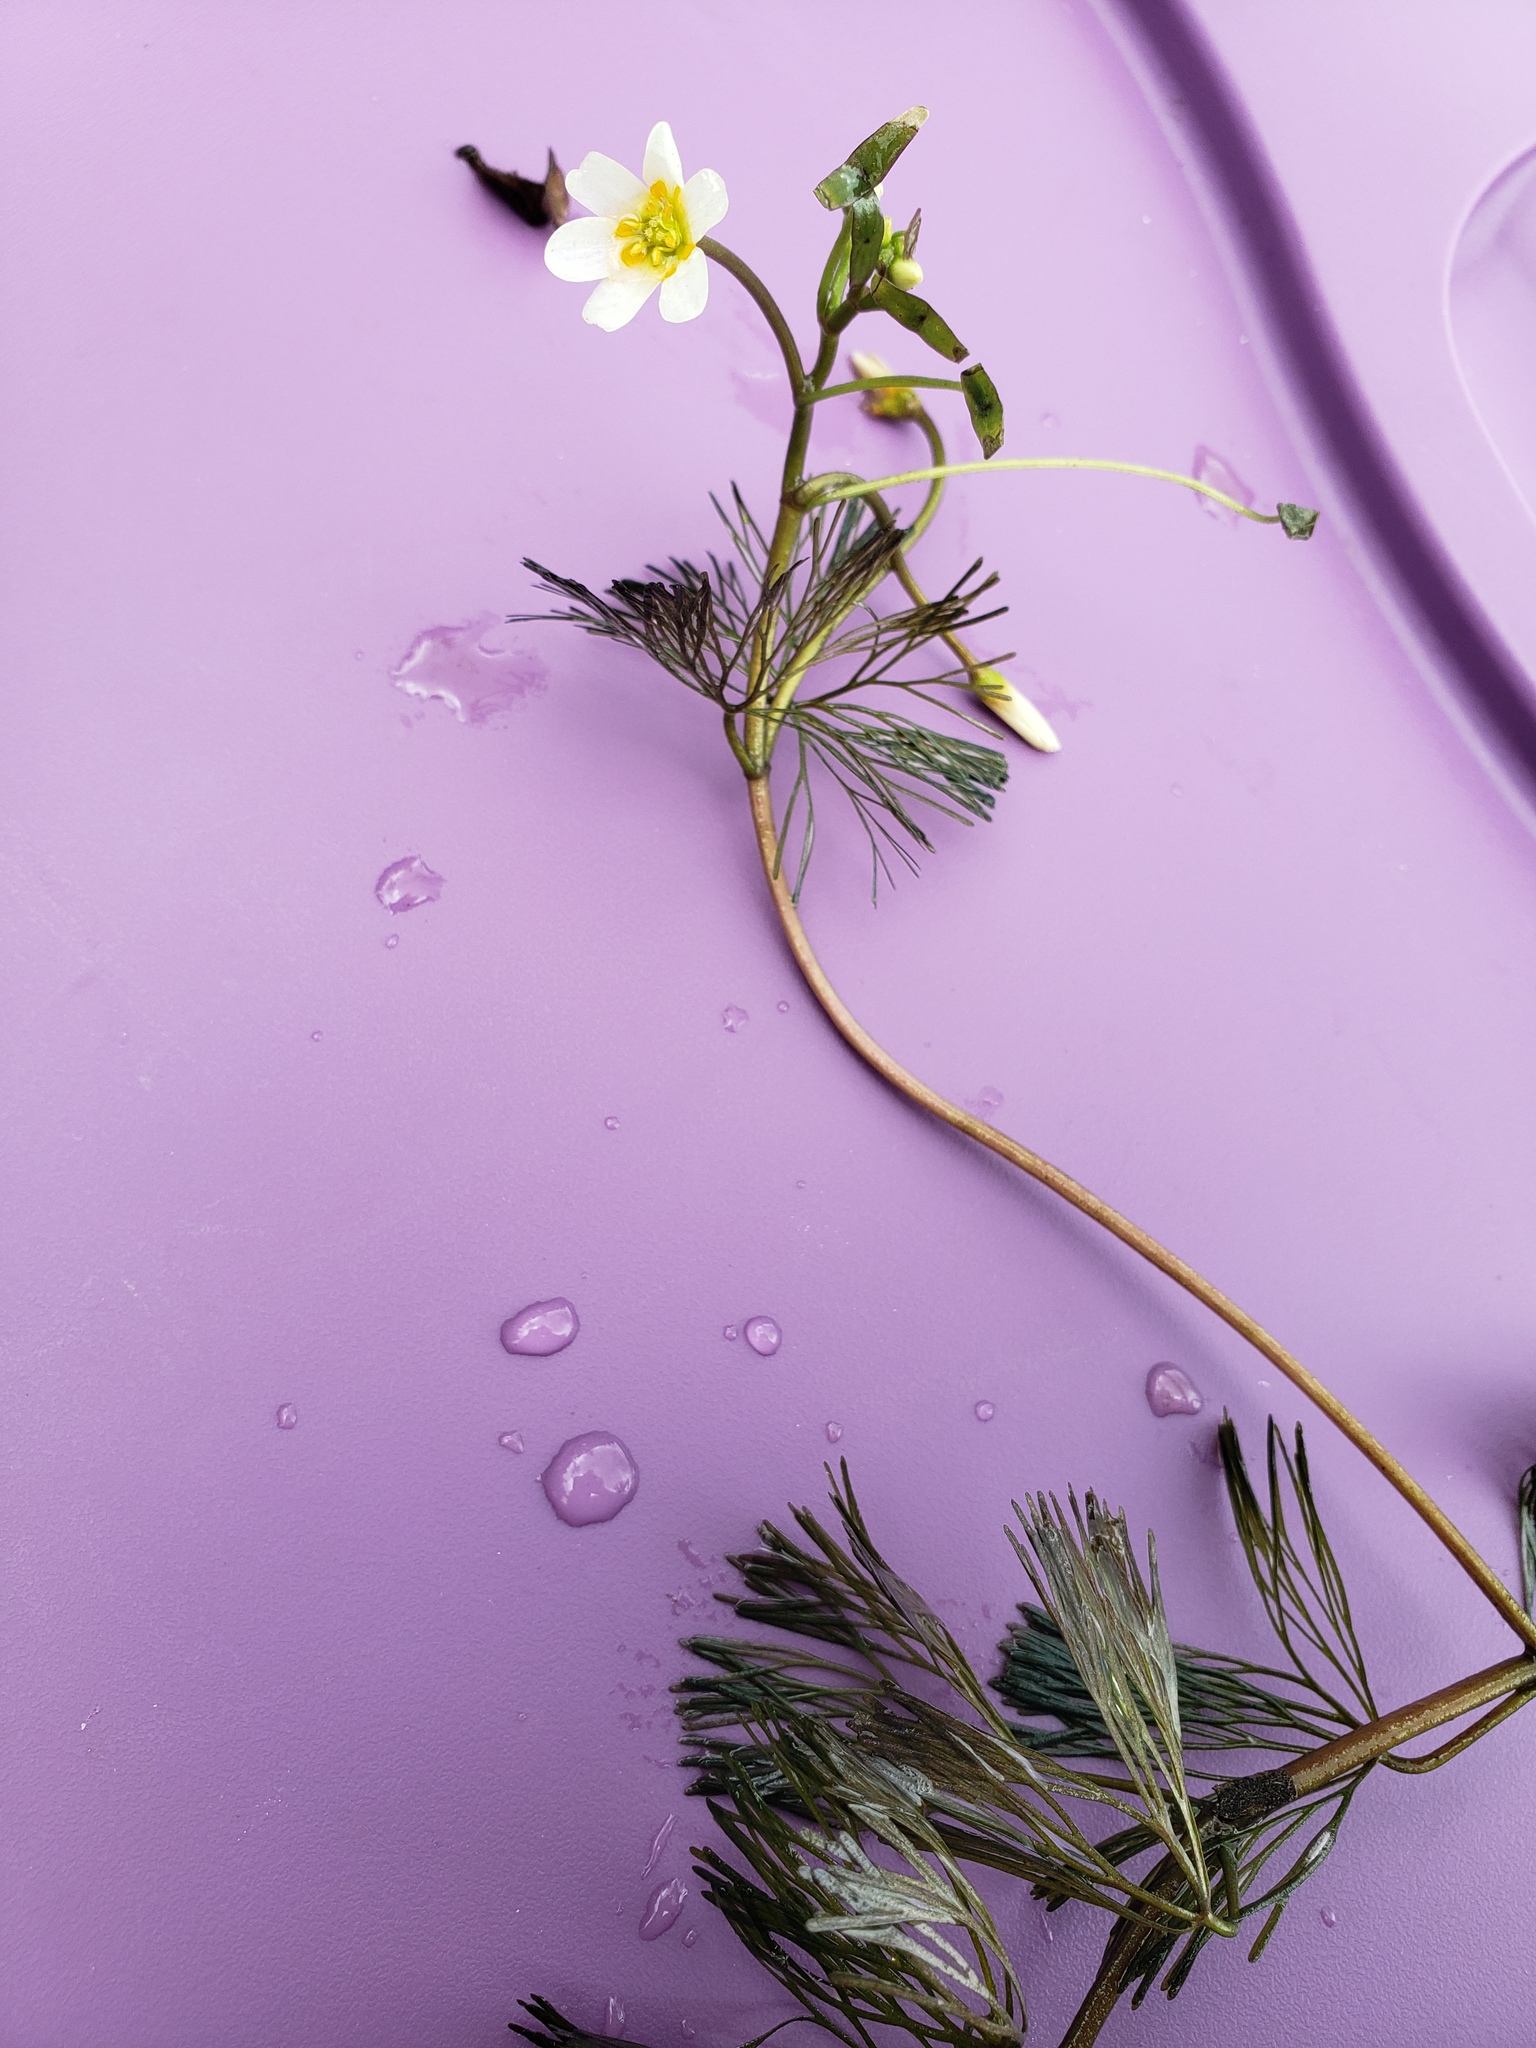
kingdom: Plantae
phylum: Tracheophyta
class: Magnoliopsida
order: Nymphaeales
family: Cabombaceae
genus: Cabomba
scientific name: Cabomba caroliniana
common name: Fanwort
